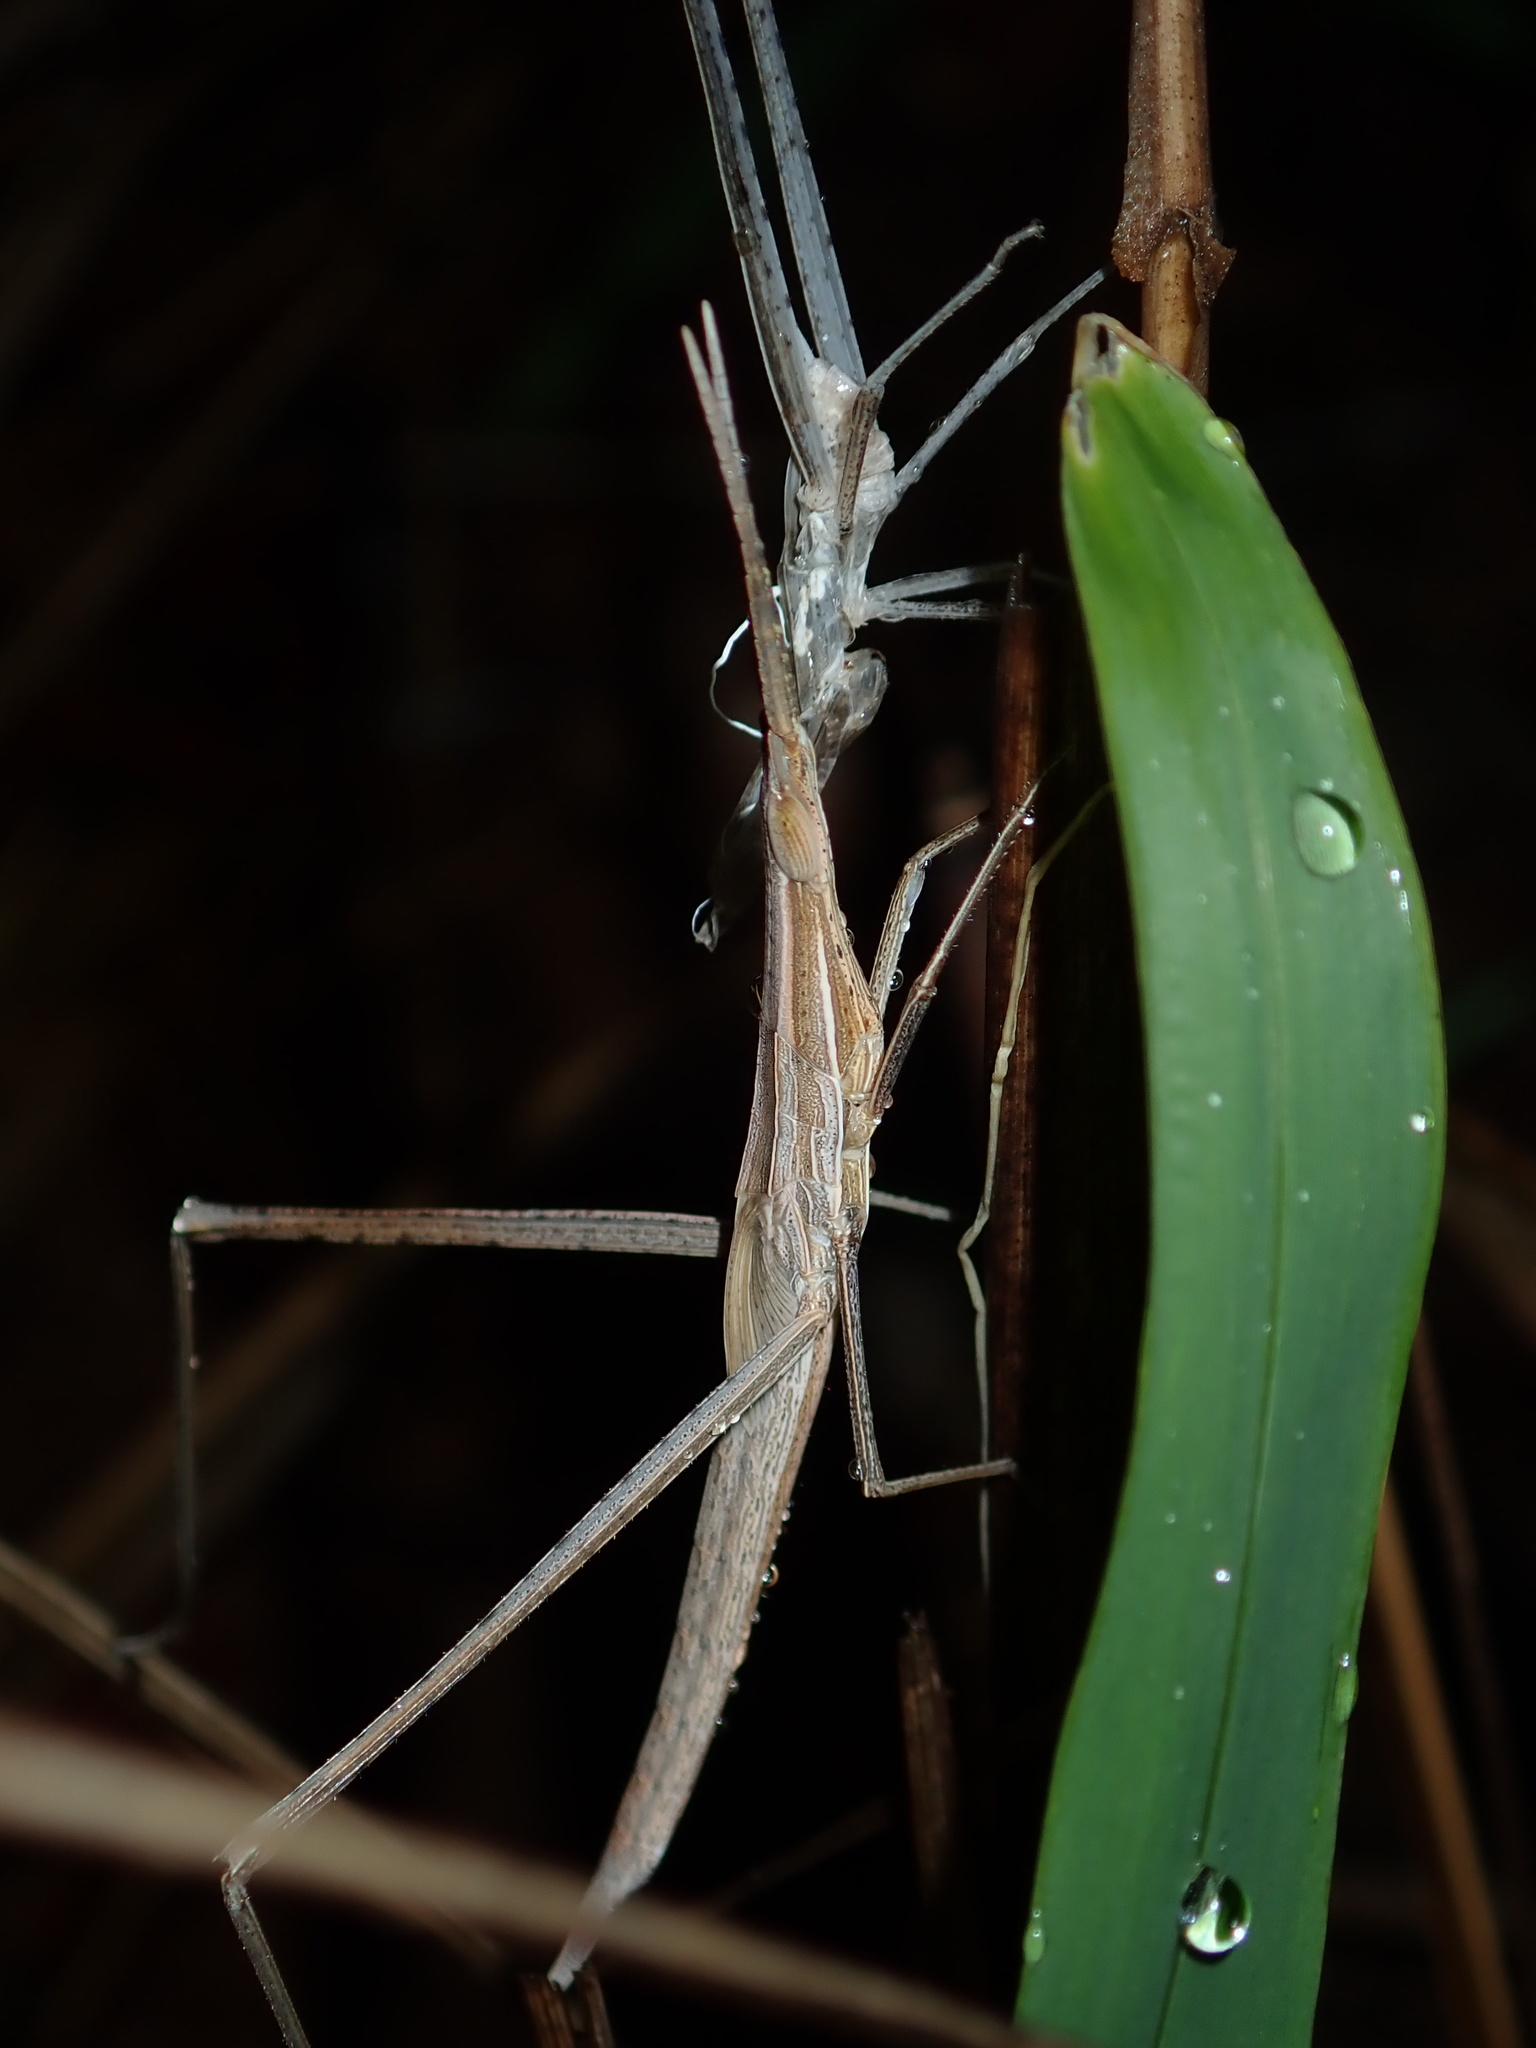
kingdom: Animalia
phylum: Arthropoda
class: Insecta
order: Orthoptera
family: Acrididae
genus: Acrida
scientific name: Acrida conica
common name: Giant green slantface
